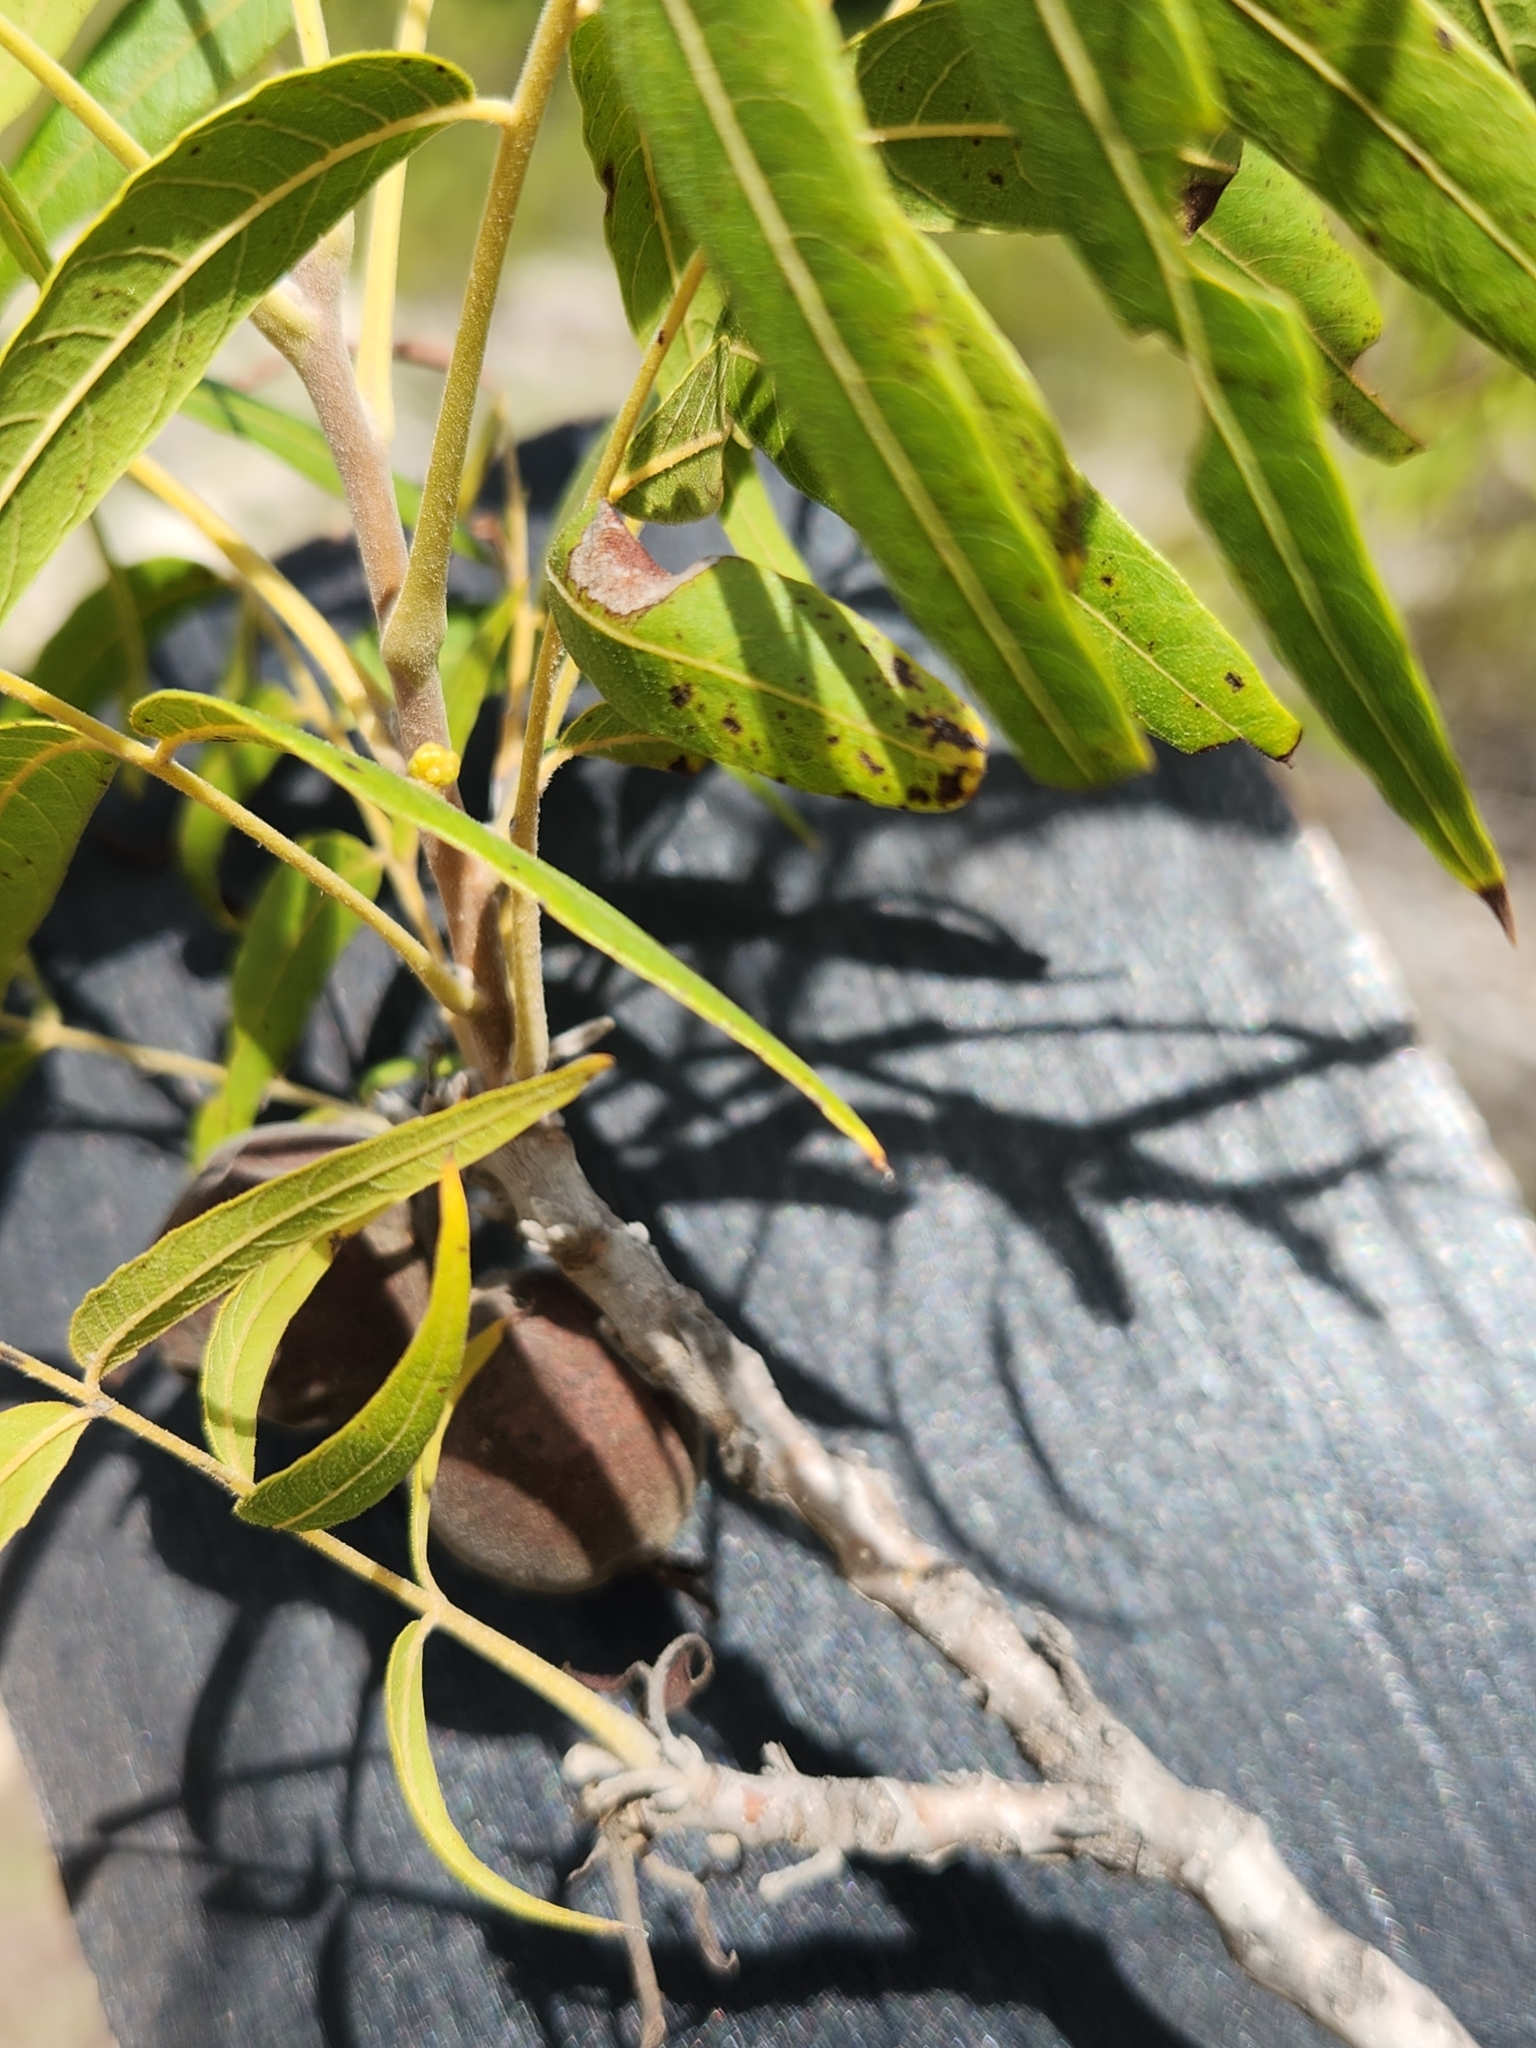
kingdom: Plantae
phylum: Tracheophyta
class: Magnoliopsida
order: Fagales
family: Juglandaceae
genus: Juglans
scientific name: Juglans microcarpa
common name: Texas walnut
